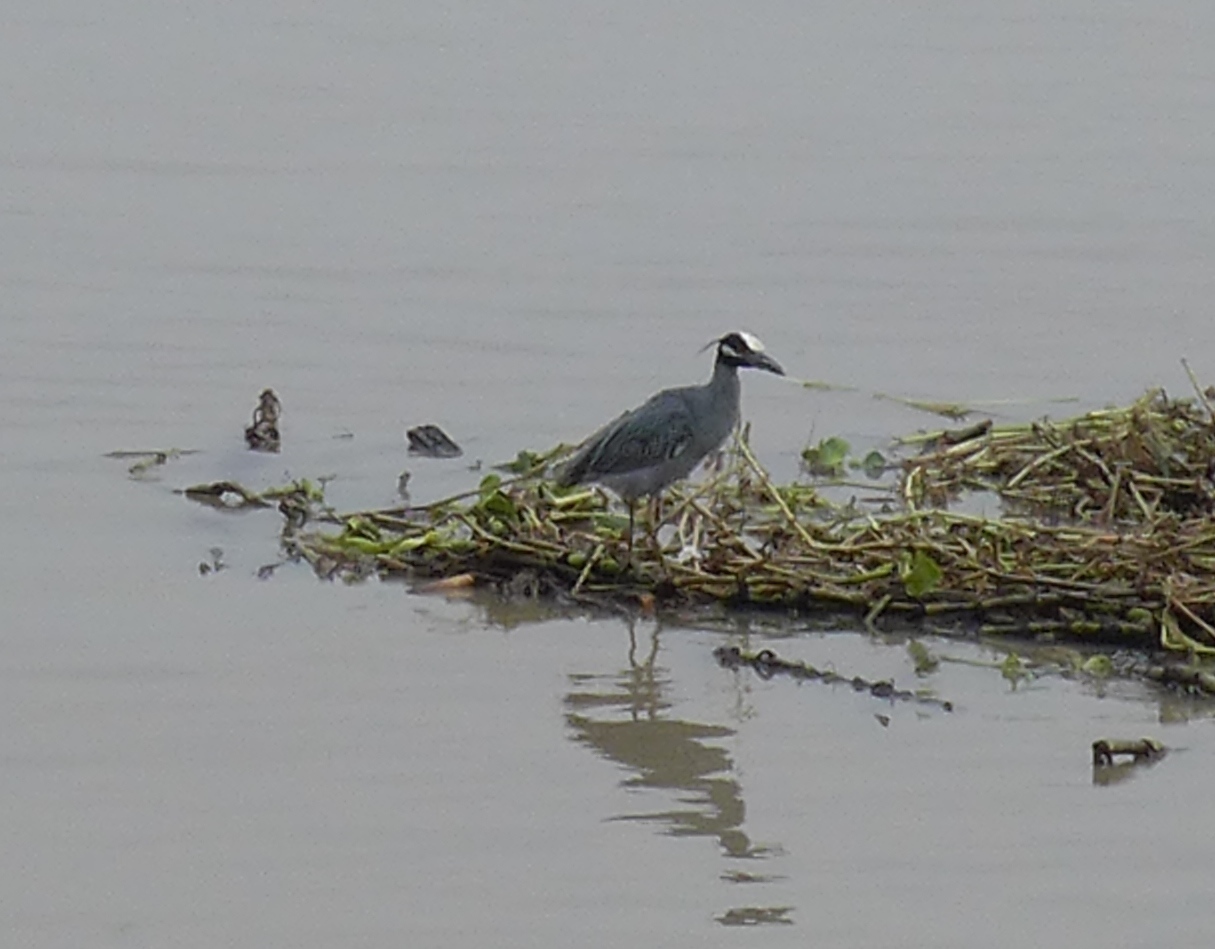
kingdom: Animalia
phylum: Chordata
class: Aves
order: Pelecaniformes
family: Ardeidae
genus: Nyctanassa
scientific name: Nyctanassa violacea
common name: Yellow-crowned night heron
